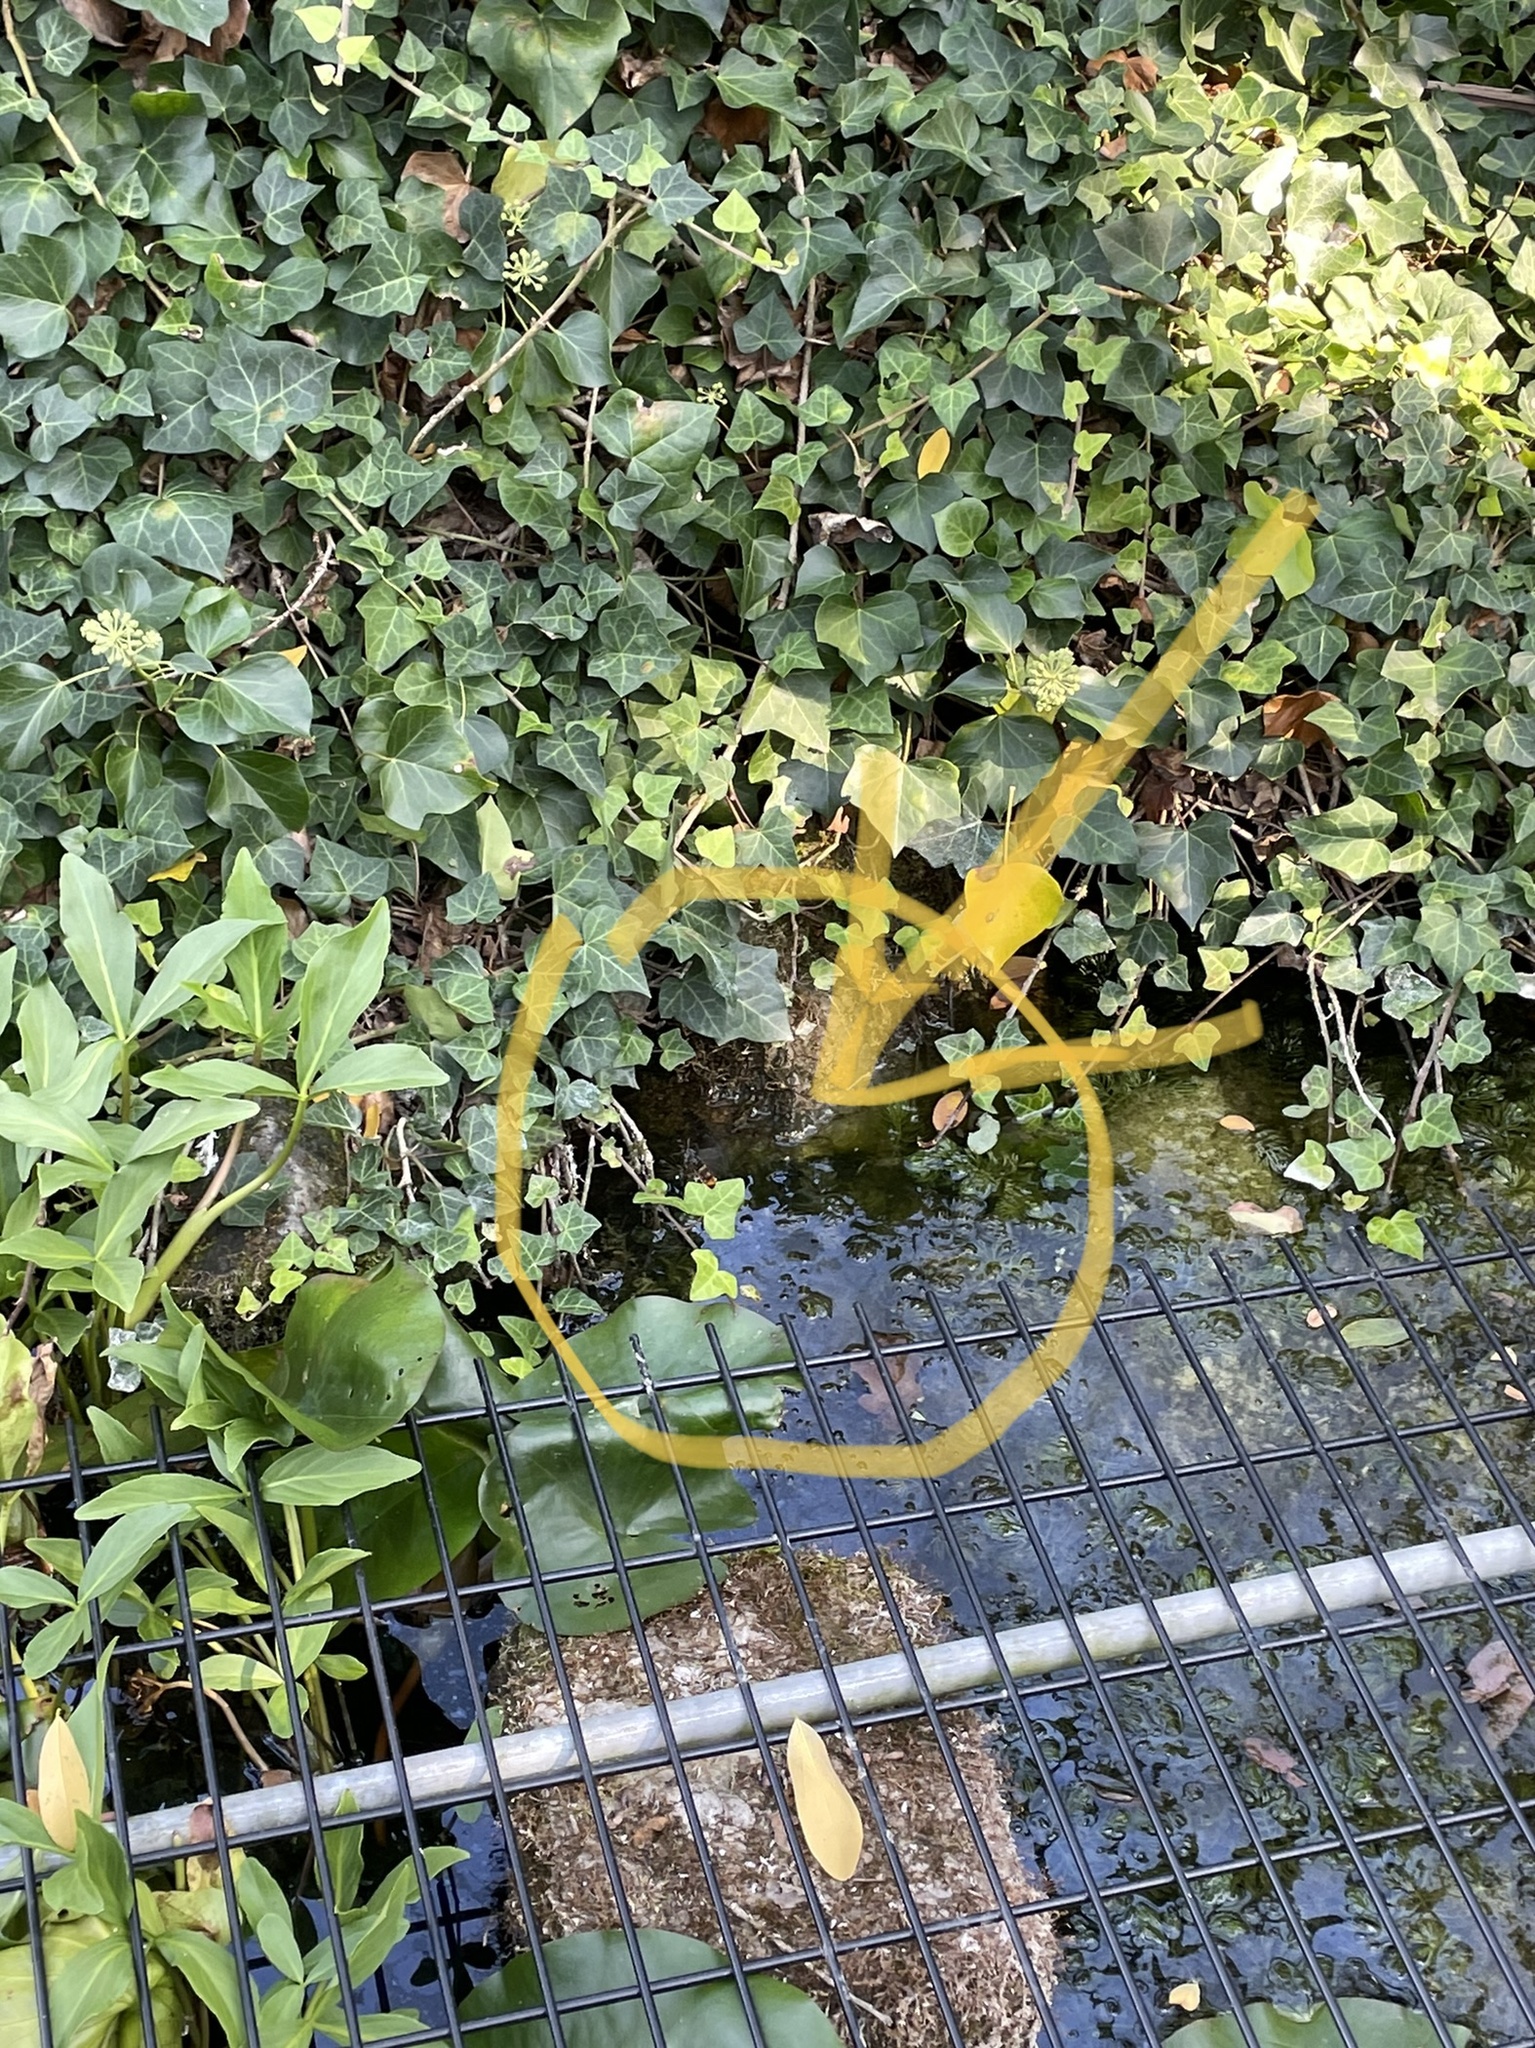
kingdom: Animalia
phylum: Arthropoda
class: Insecta
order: Hymenoptera
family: Vespidae
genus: Vespa
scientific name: Vespa velutina
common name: Asian hornet
